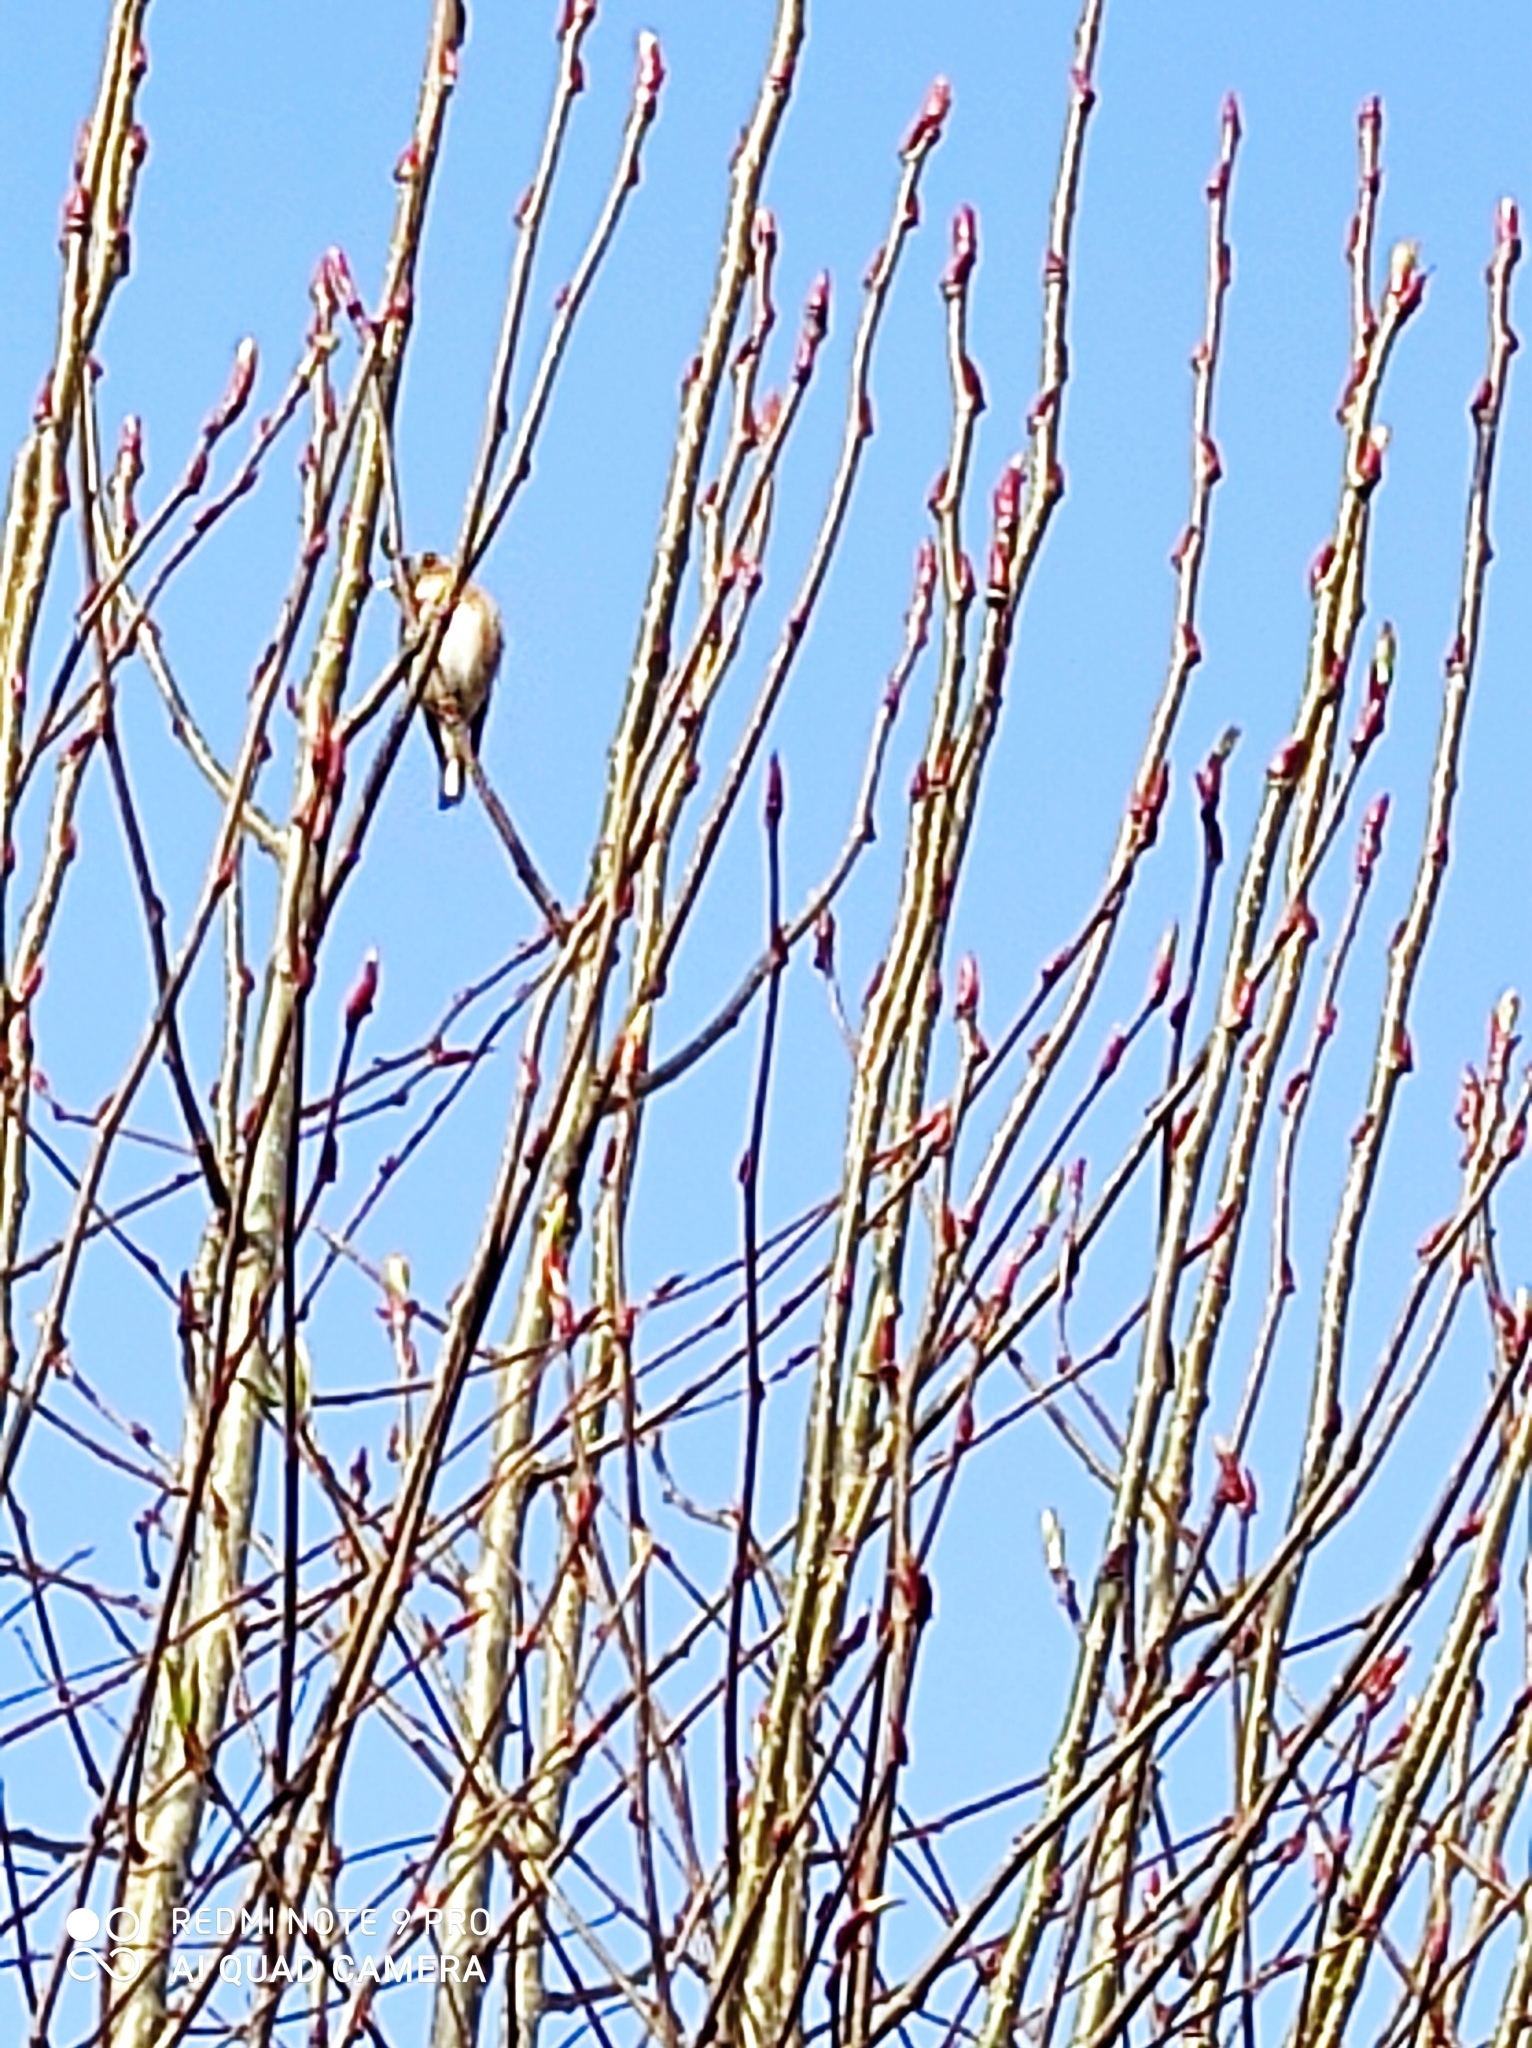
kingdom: Animalia
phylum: Chordata
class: Aves
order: Passeriformes
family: Fringillidae
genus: Carduelis
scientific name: Carduelis carduelis
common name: European goldfinch
